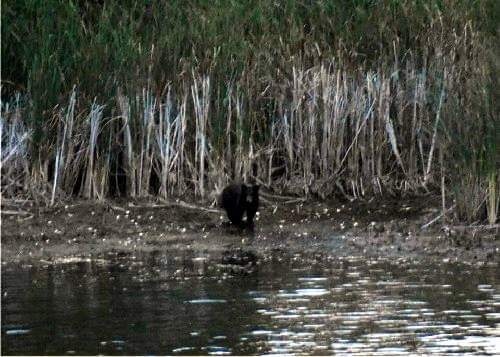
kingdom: Animalia
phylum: Chordata
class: Mammalia
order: Carnivora
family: Ursidae
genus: Ursus
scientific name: Ursus americanus
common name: American black bear
